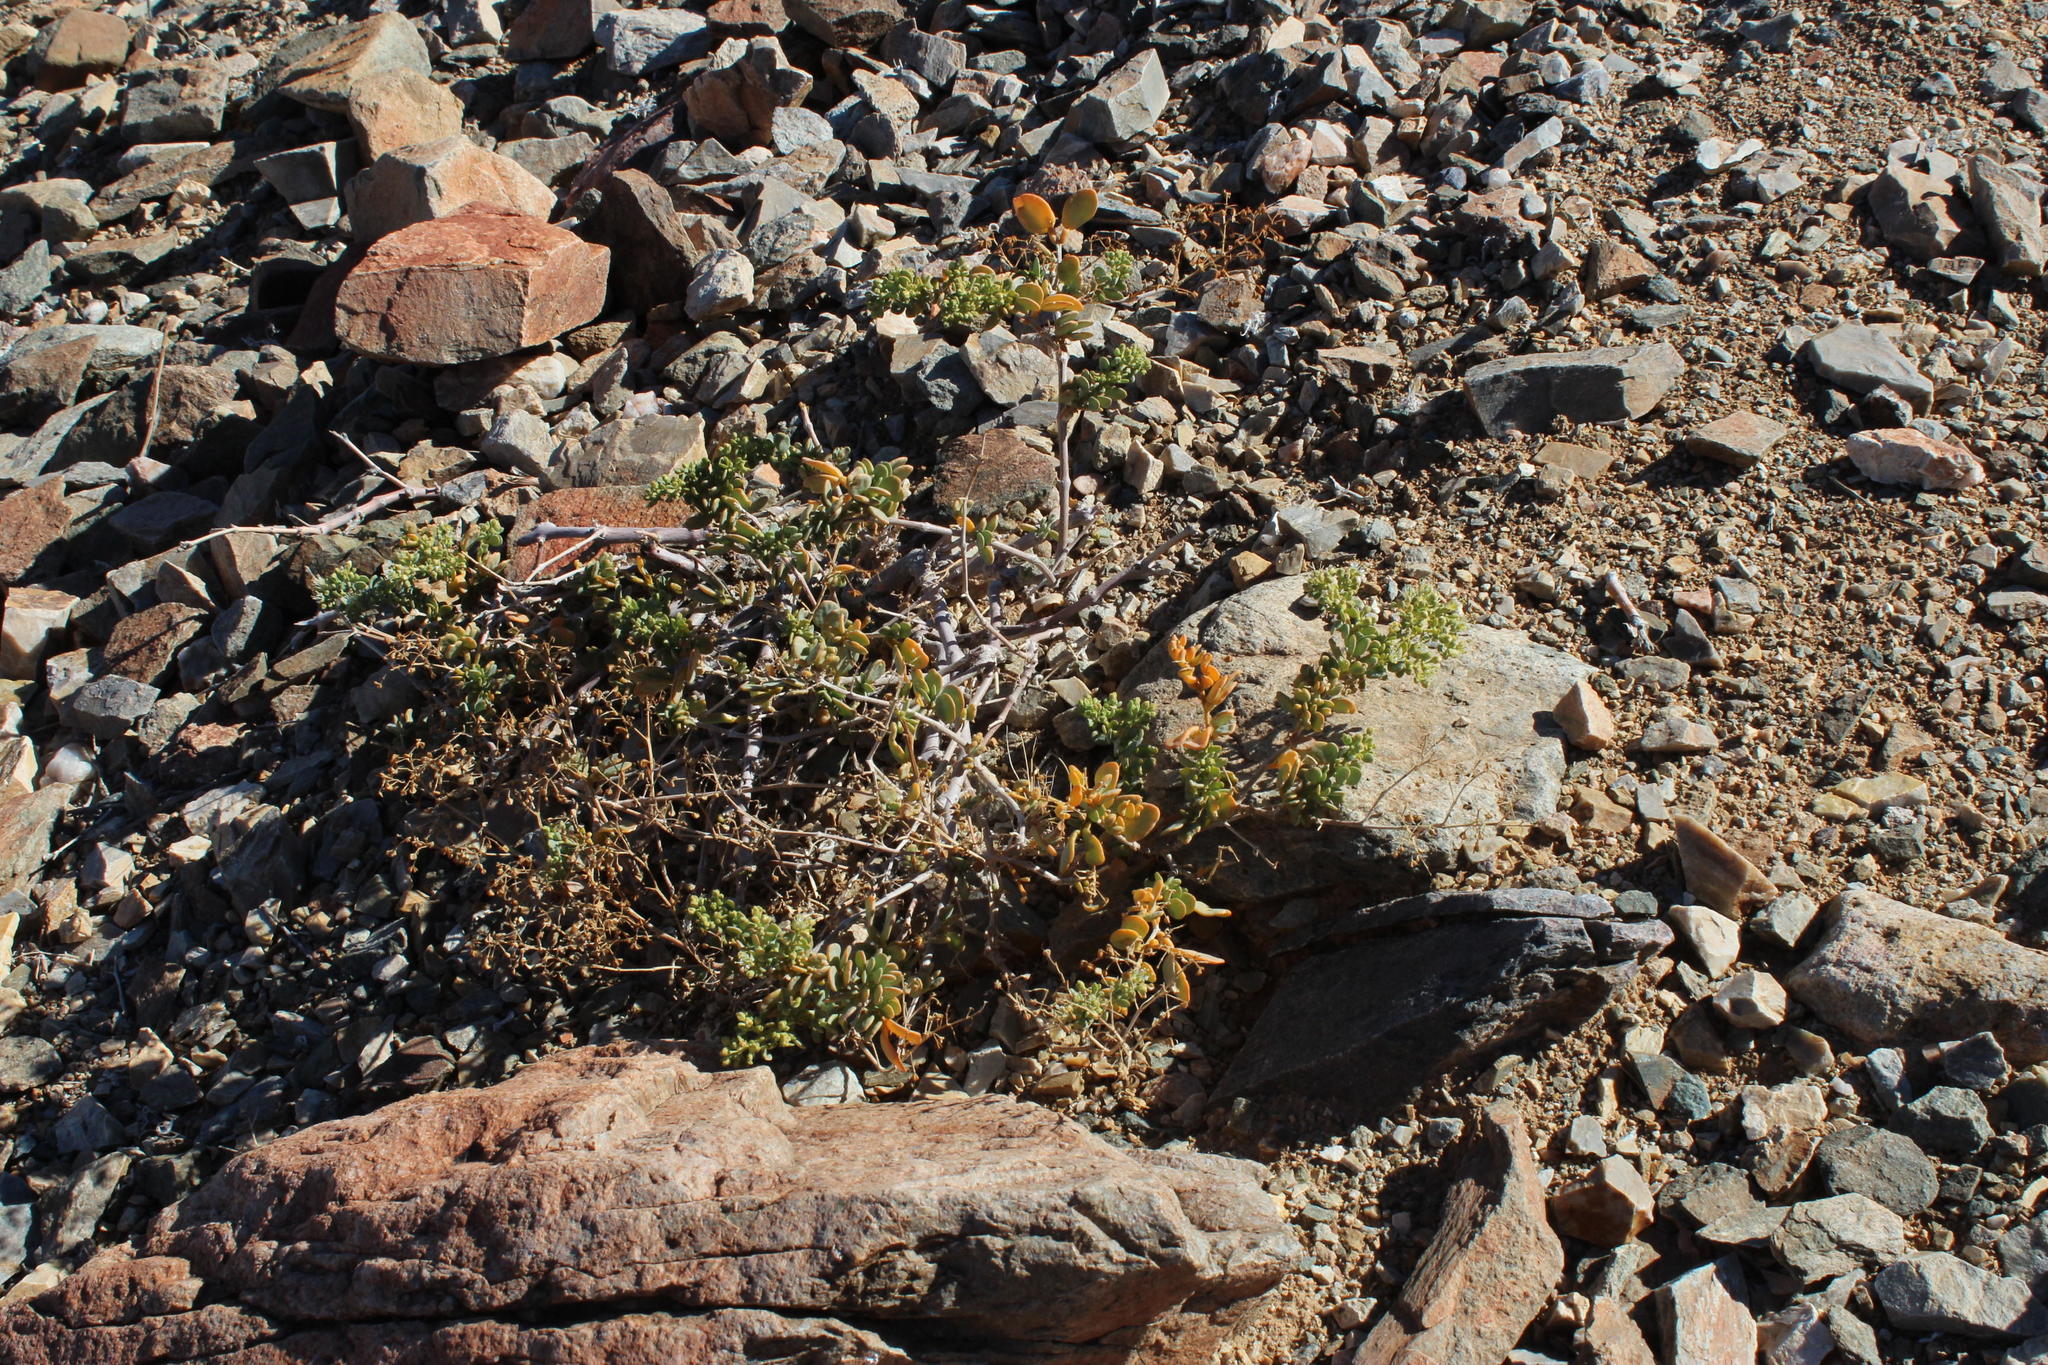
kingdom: Plantae
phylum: Tracheophyta
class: Magnoliopsida
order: Zygophyllales
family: Zygophyllaceae
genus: Tetraena
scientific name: Tetraena decumbens
